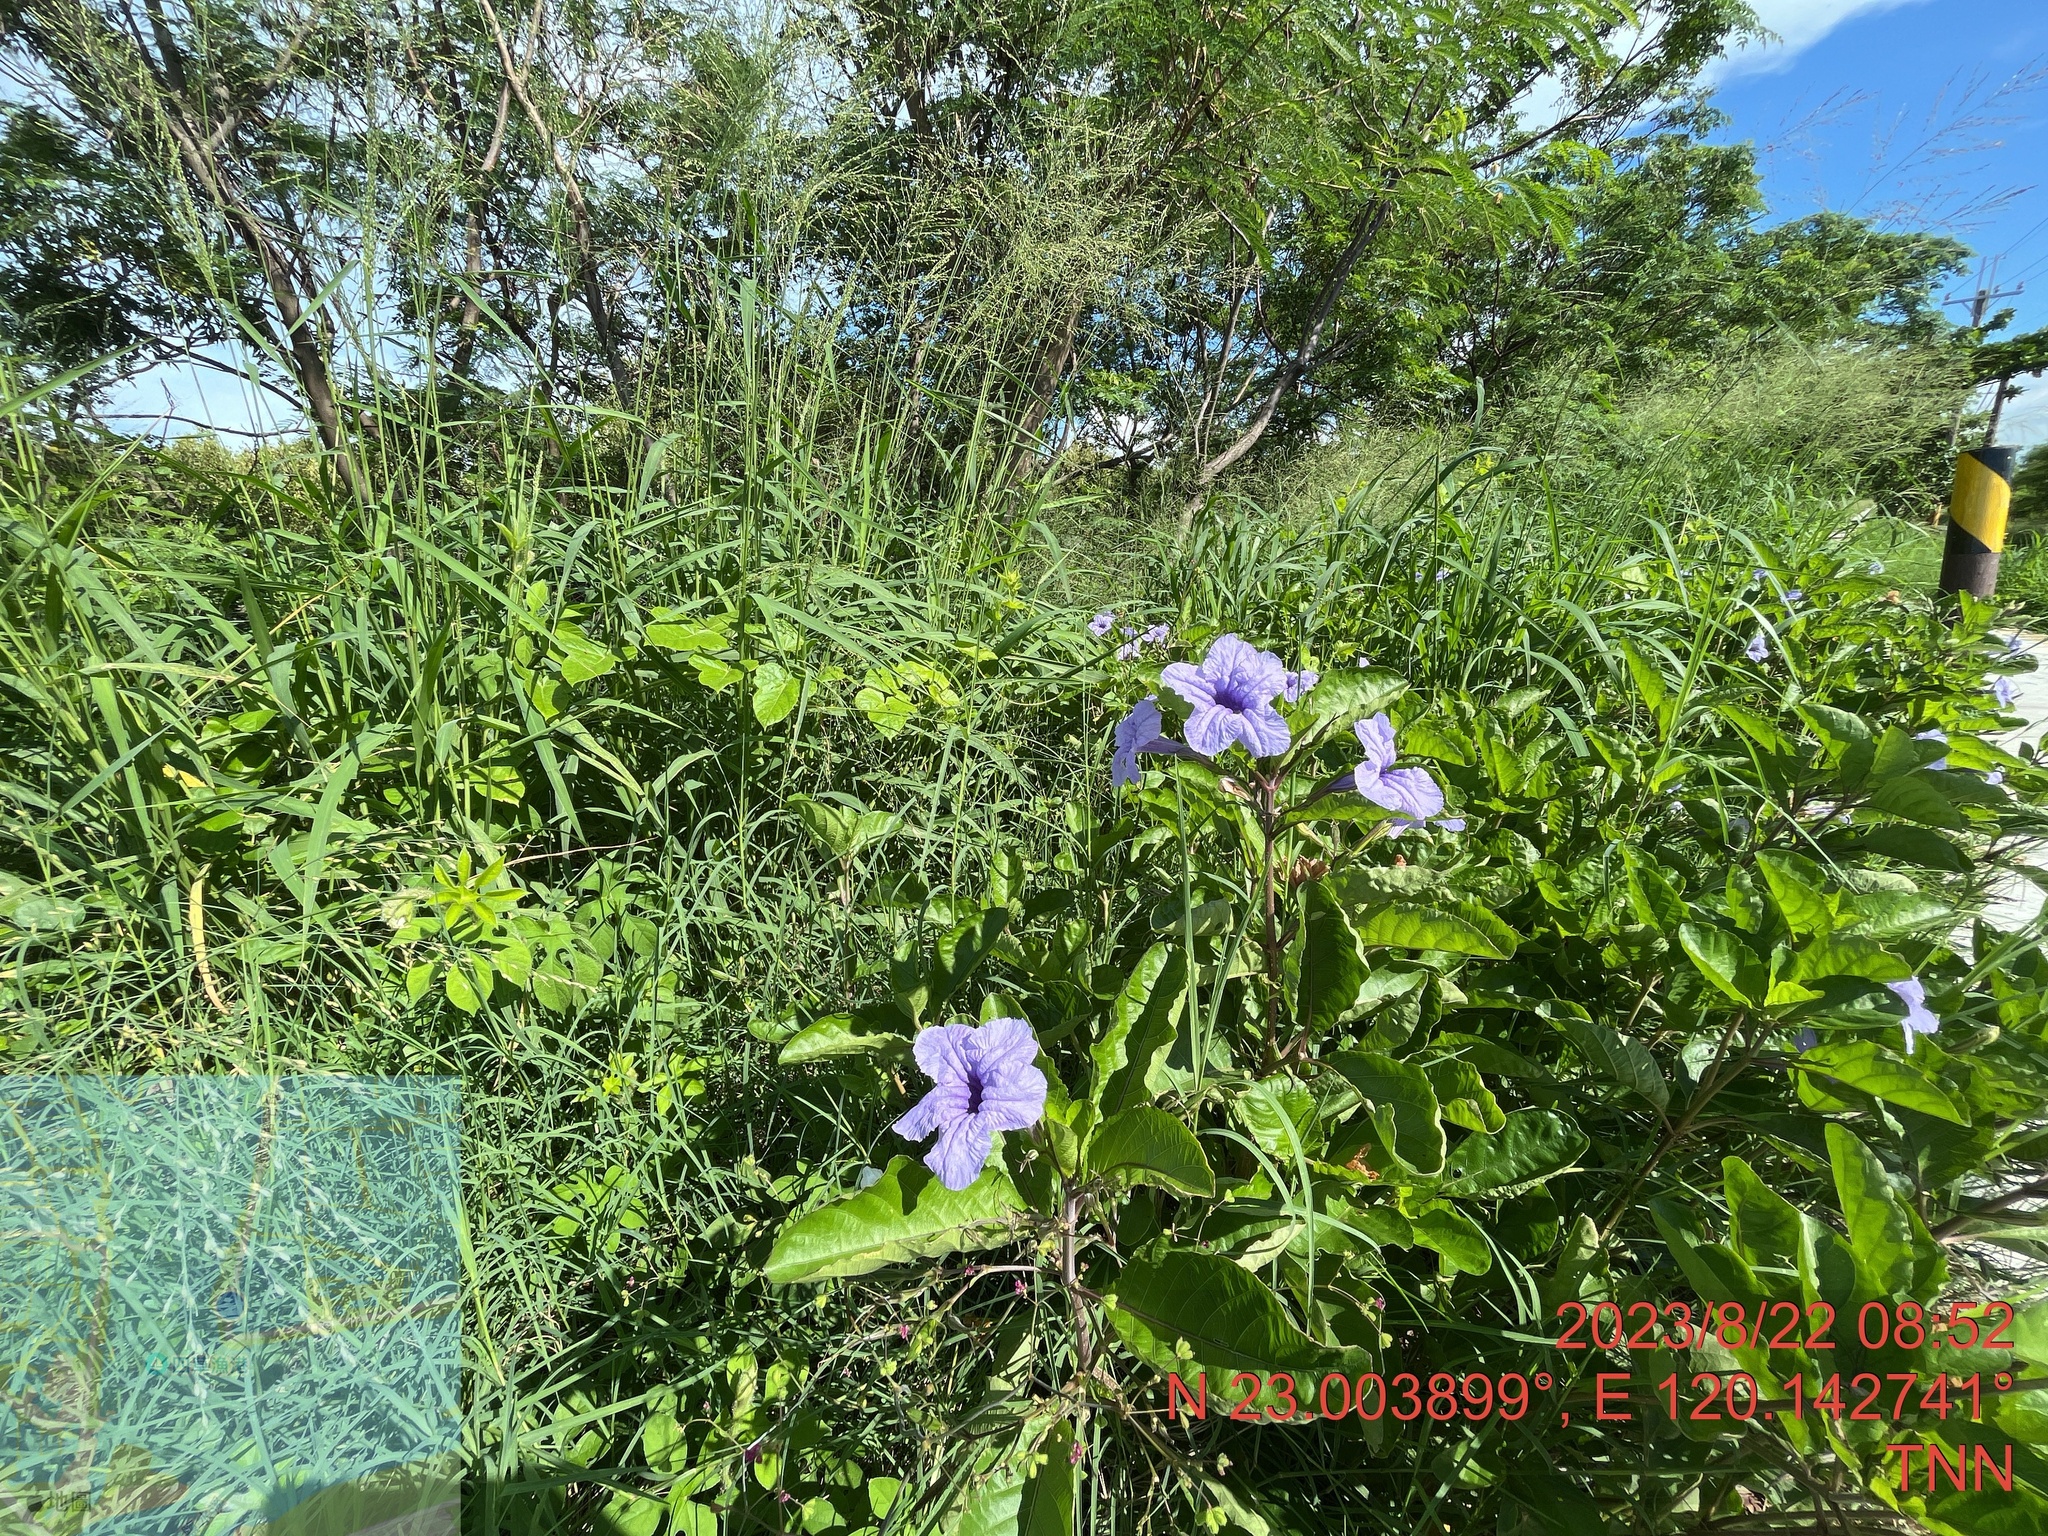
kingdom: Plantae
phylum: Tracheophyta
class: Magnoliopsida
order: Lamiales
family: Acanthaceae
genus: Ruellia
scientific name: Ruellia tuberosa
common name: Devil's bit
